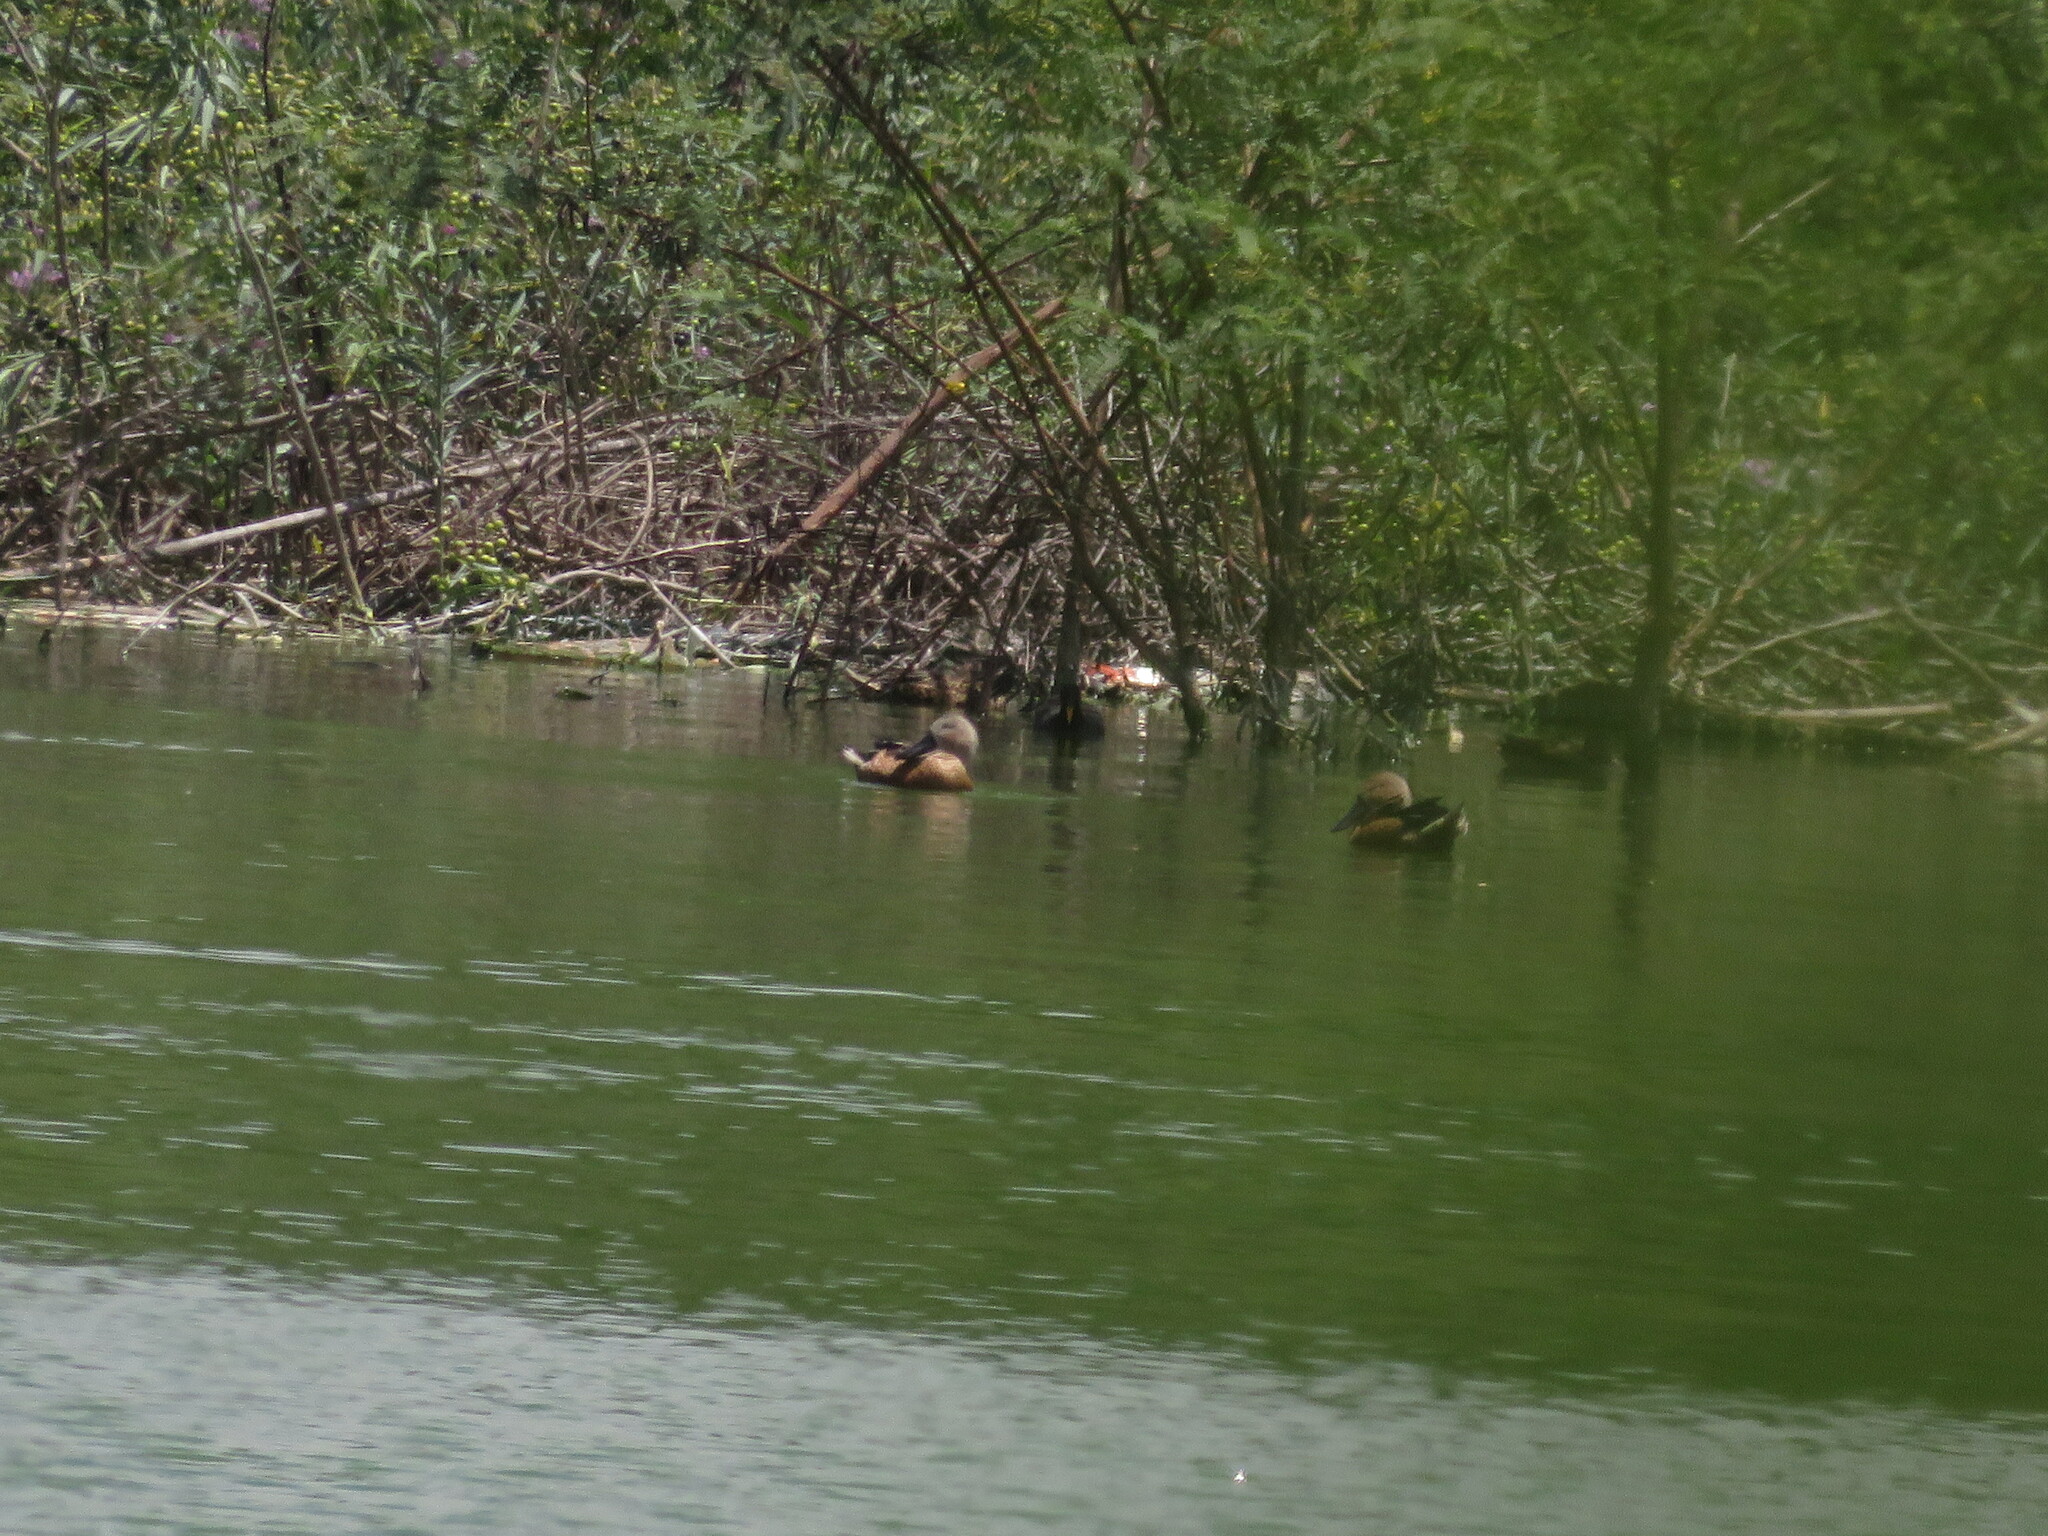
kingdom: Animalia
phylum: Chordata
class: Aves
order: Anseriformes
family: Anatidae
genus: Spatula
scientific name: Spatula platalea
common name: Red shoveler
